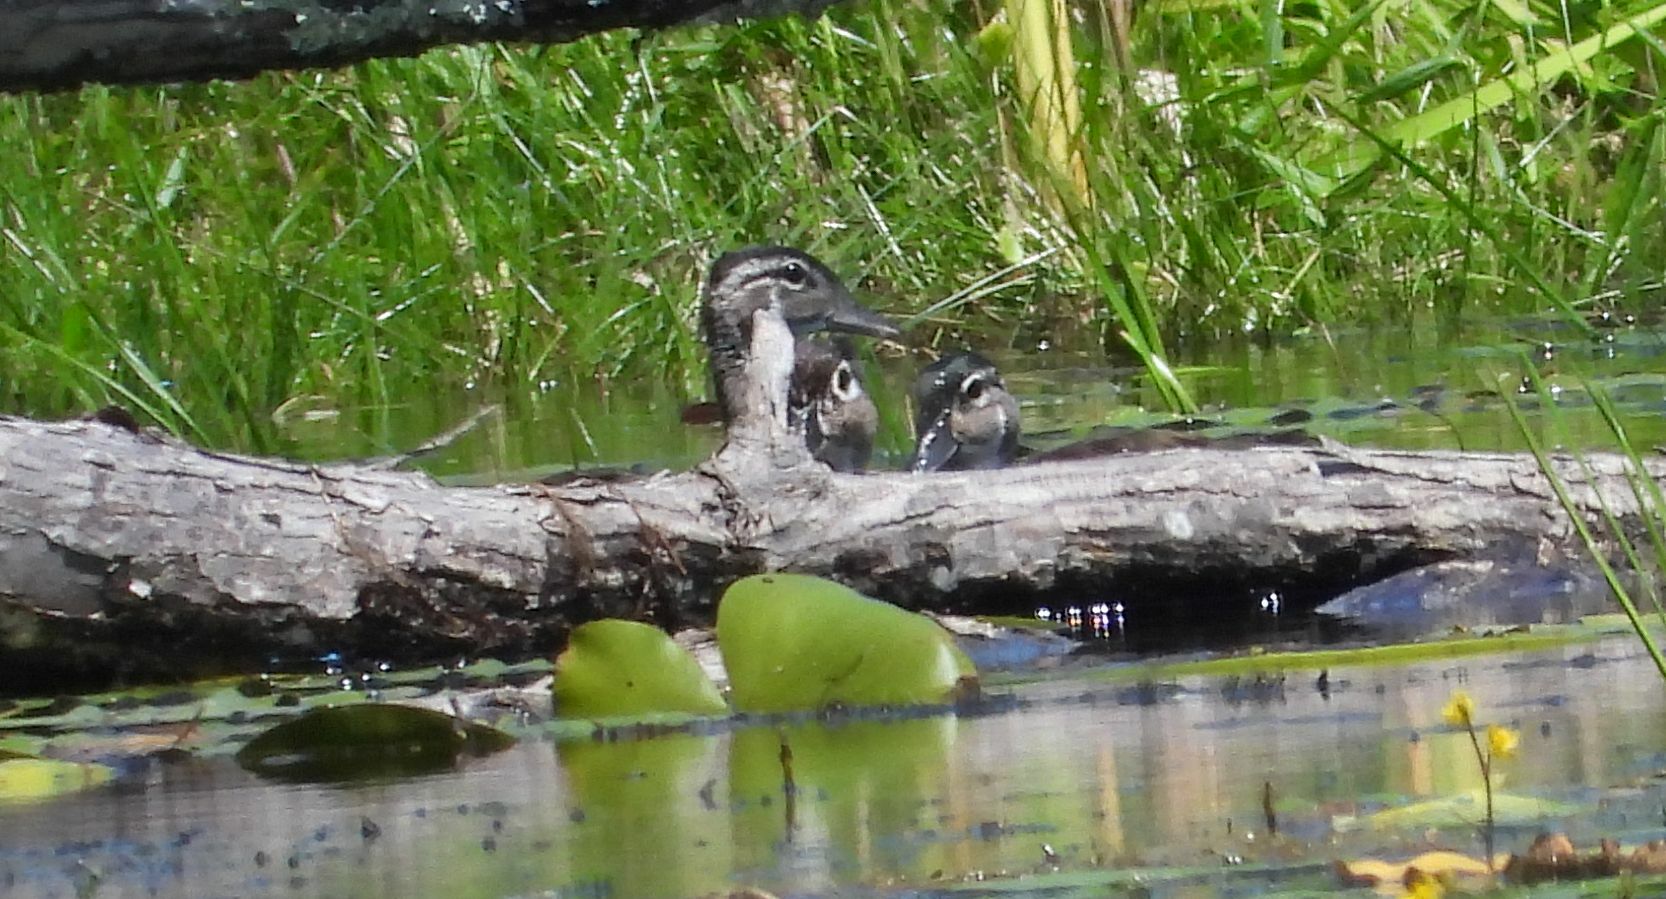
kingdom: Animalia
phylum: Chordata
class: Aves
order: Anseriformes
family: Anatidae
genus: Aix
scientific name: Aix sponsa
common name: Wood duck
